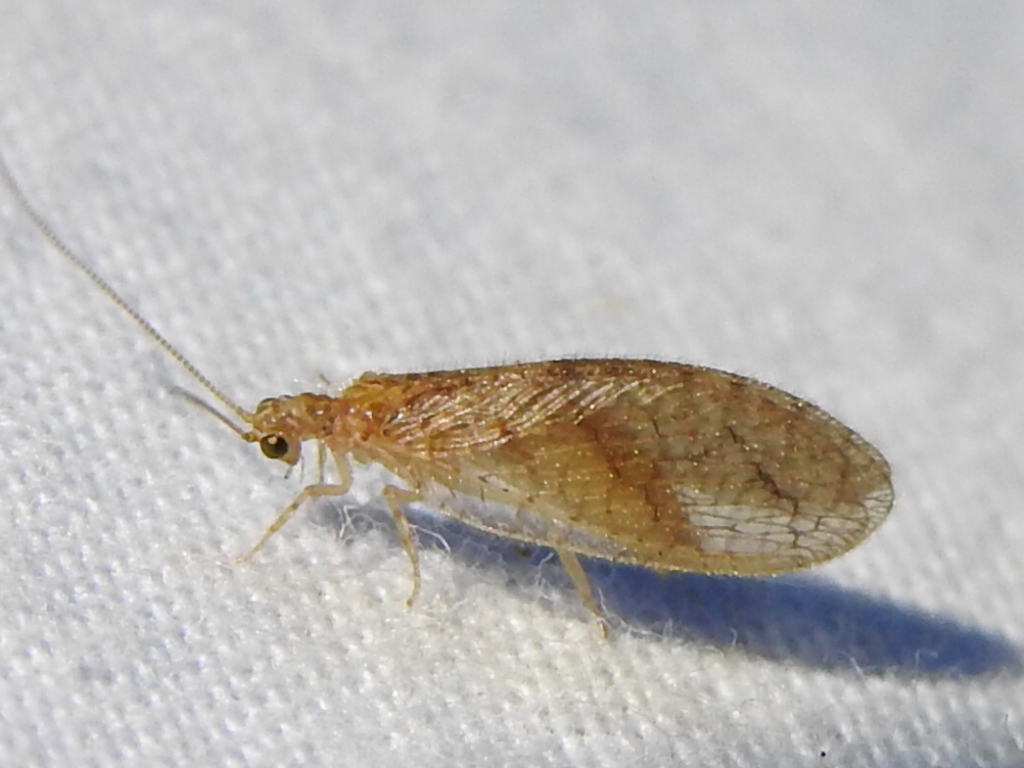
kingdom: Animalia
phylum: Arthropoda
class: Insecta
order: Neuroptera
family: Hemerobiidae
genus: Micromus
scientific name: Micromus posticus
